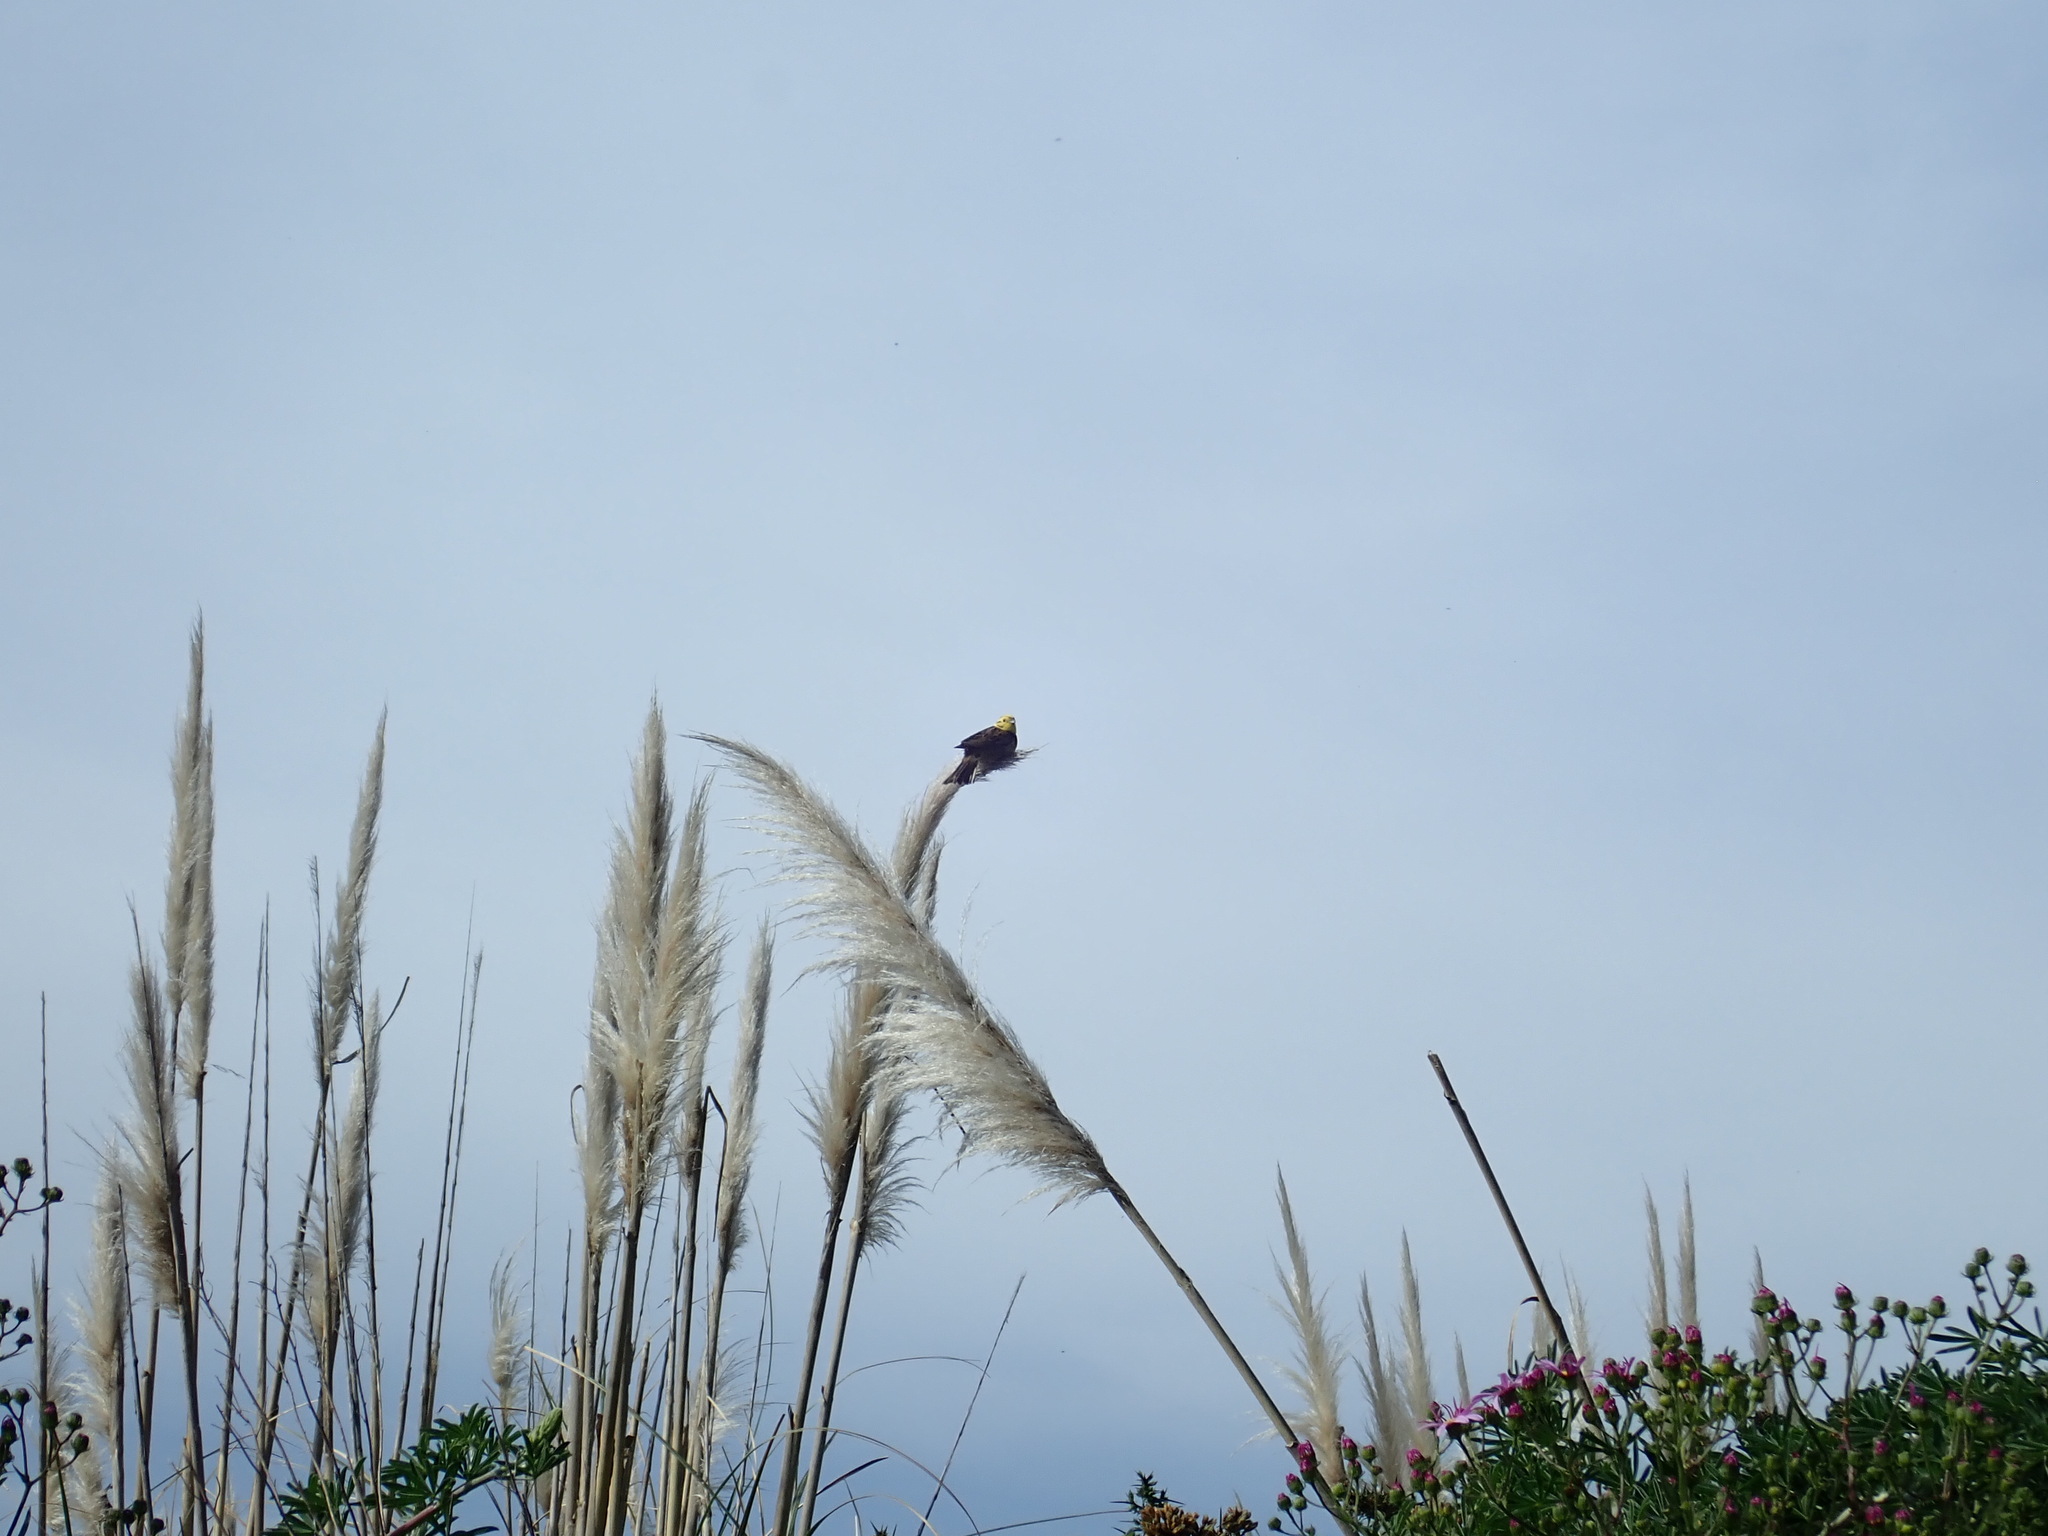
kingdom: Animalia
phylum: Chordata
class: Aves
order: Passeriformes
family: Emberizidae
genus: Emberiza
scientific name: Emberiza citrinella
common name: Yellowhammer
